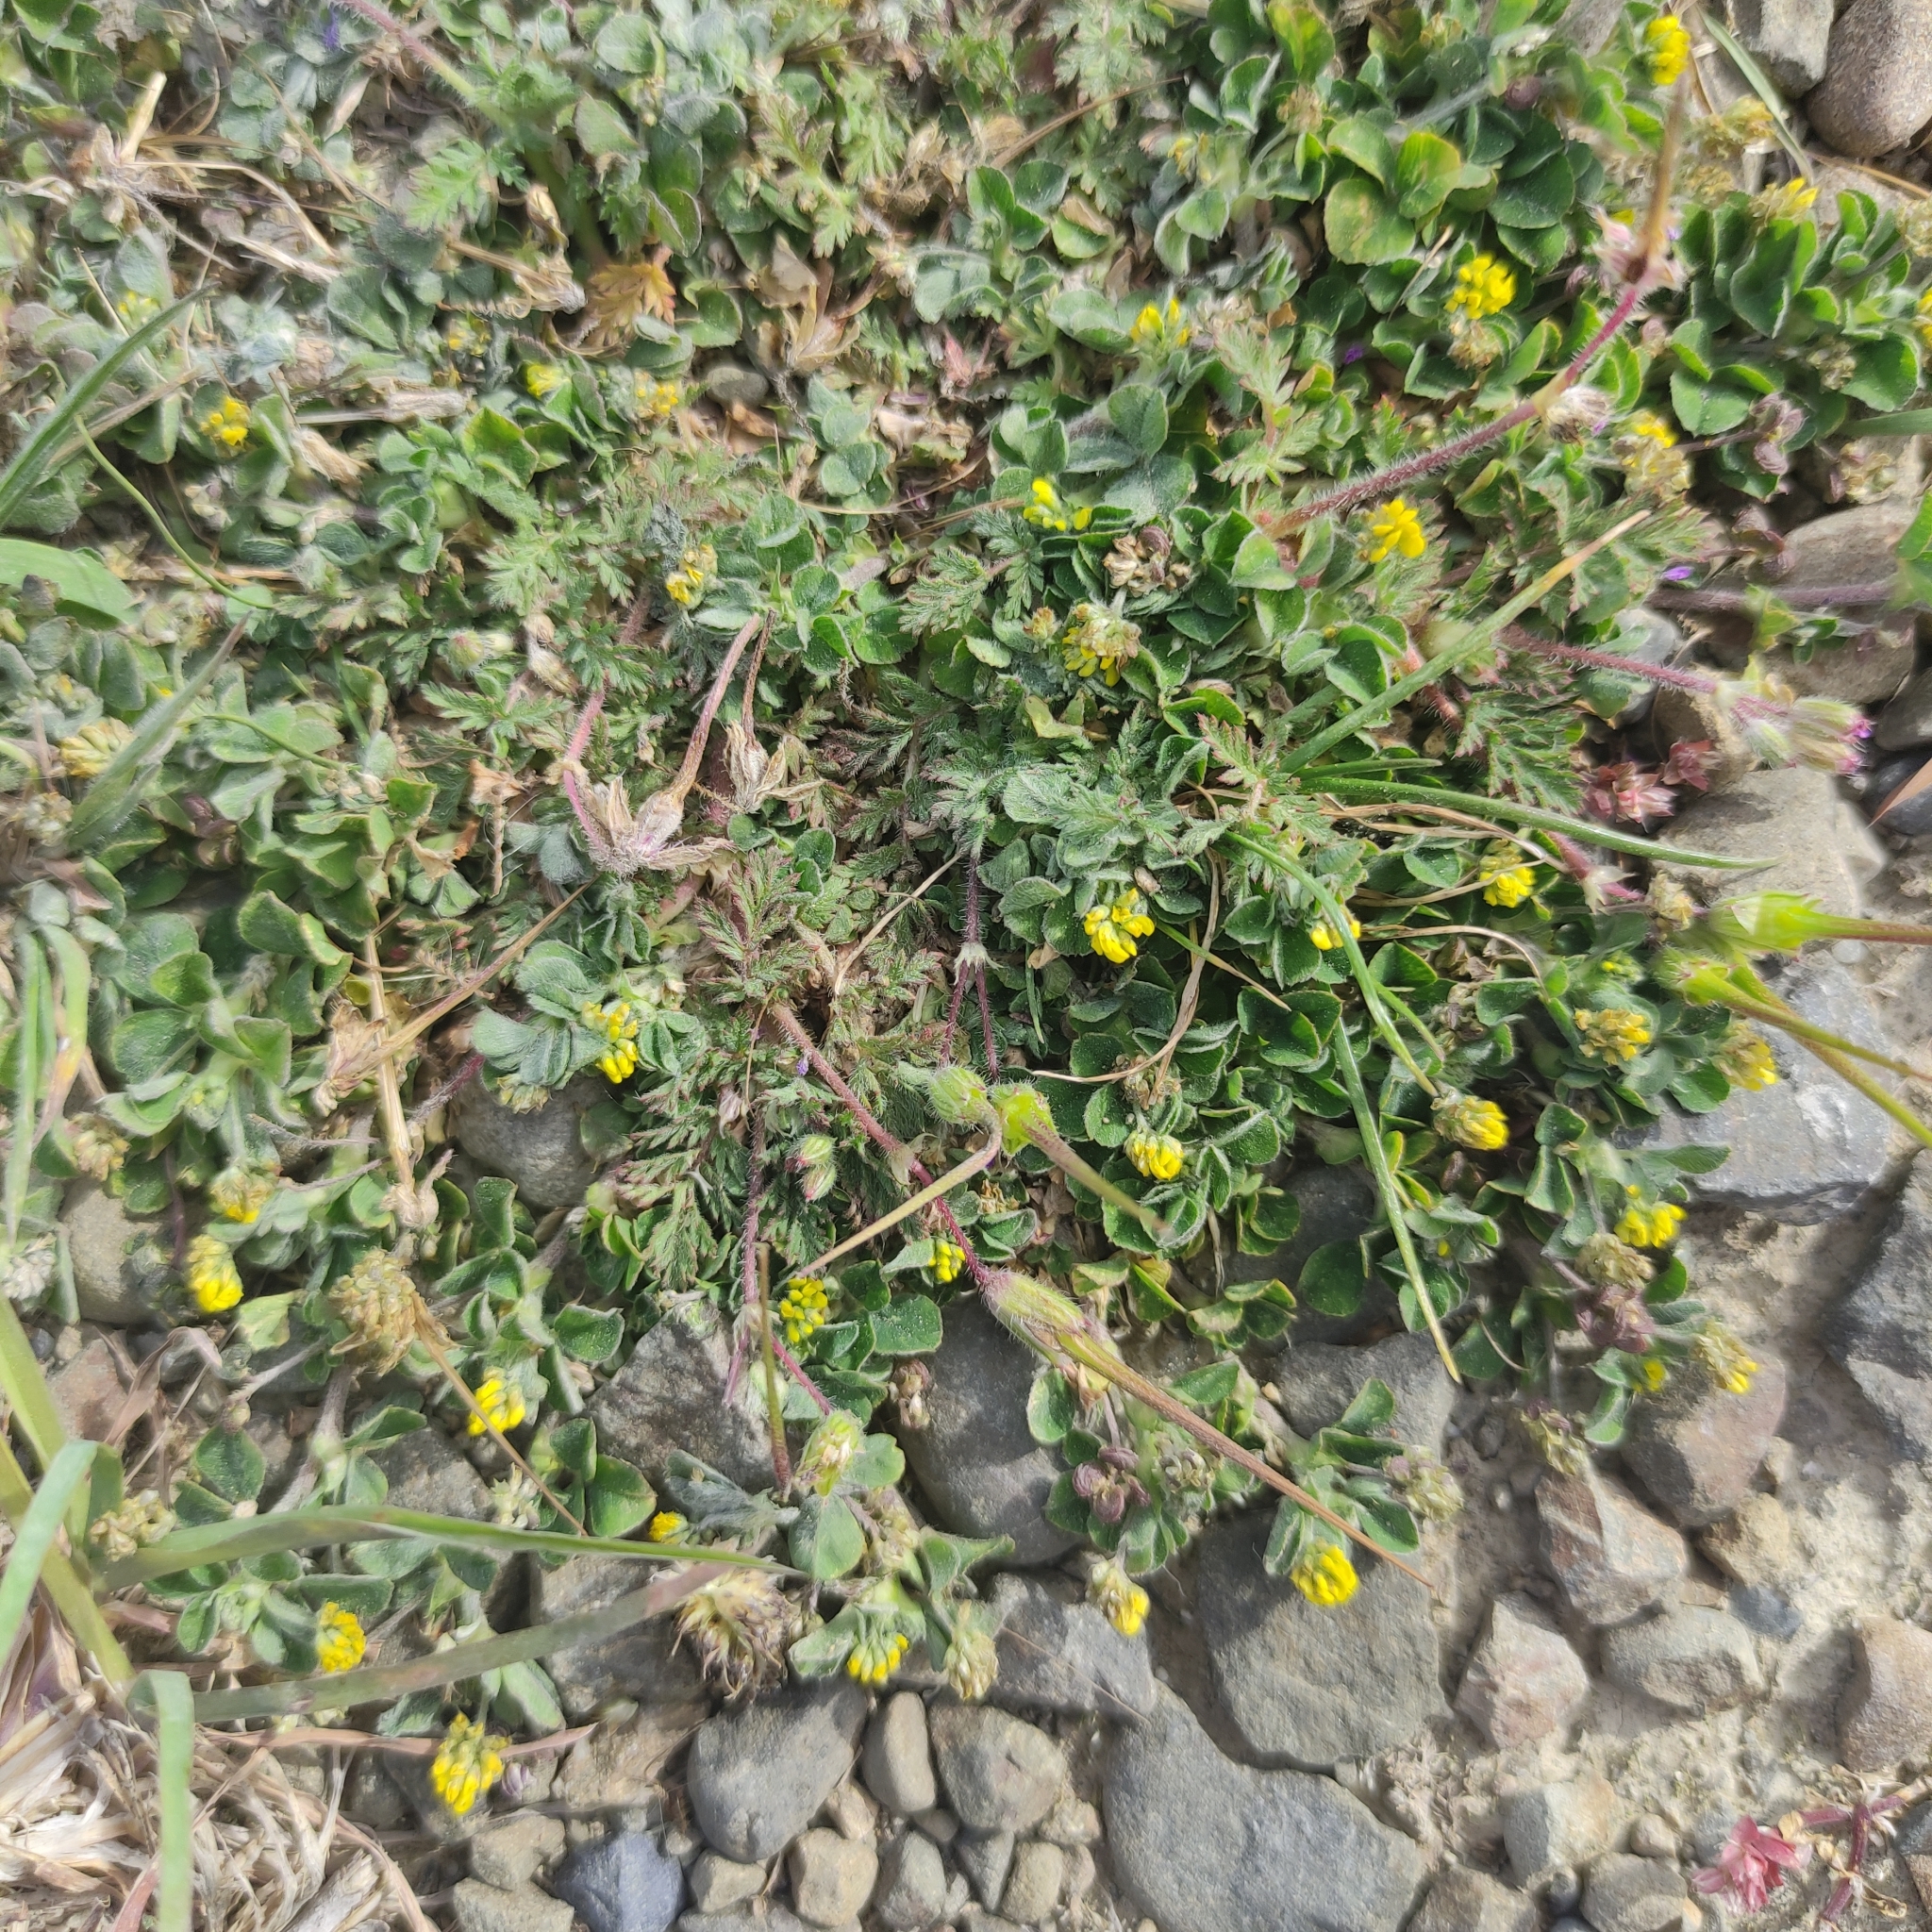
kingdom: Plantae
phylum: Tracheophyta
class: Magnoliopsida
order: Fabales
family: Fabaceae
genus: Trifolium
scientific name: Trifolium dubium
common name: Suckling clover
